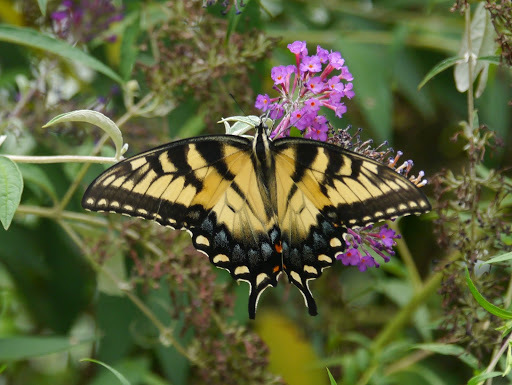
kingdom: Animalia
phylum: Arthropoda
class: Insecta
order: Lepidoptera
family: Papilionidae
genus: Papilio
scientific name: Papilio glaucus
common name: Tiger swallowtail
